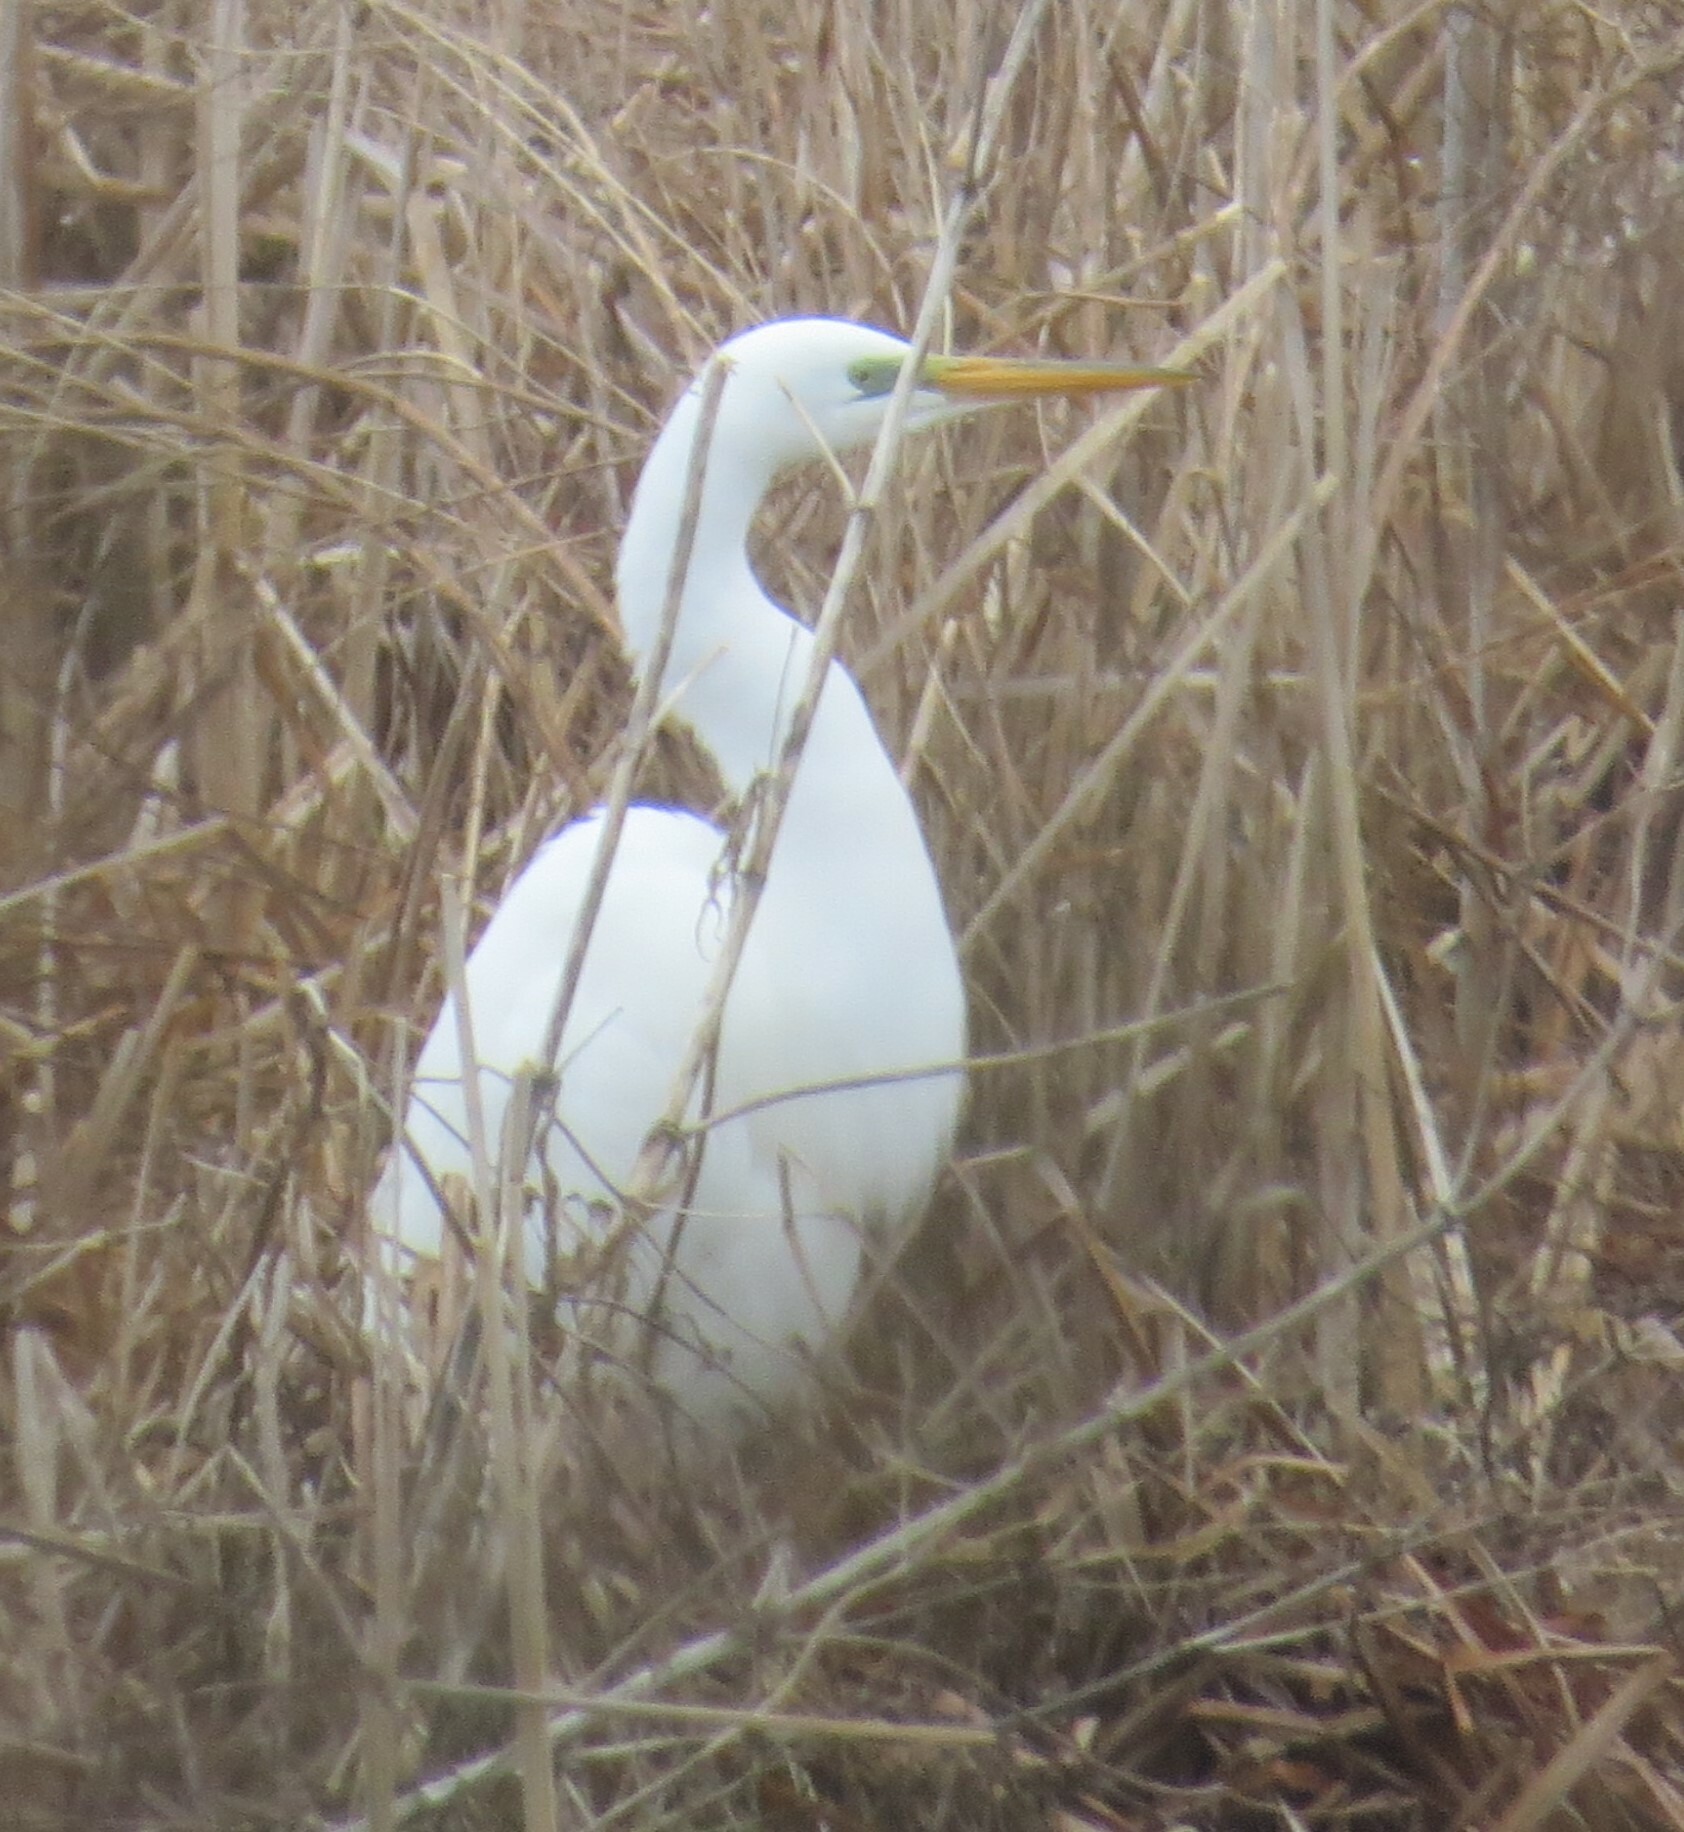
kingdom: Animalia
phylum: Chordata
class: Aves
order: Pelecaniformes
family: Ardeidae
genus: Ardea
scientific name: Ardea alba
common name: Great egret
